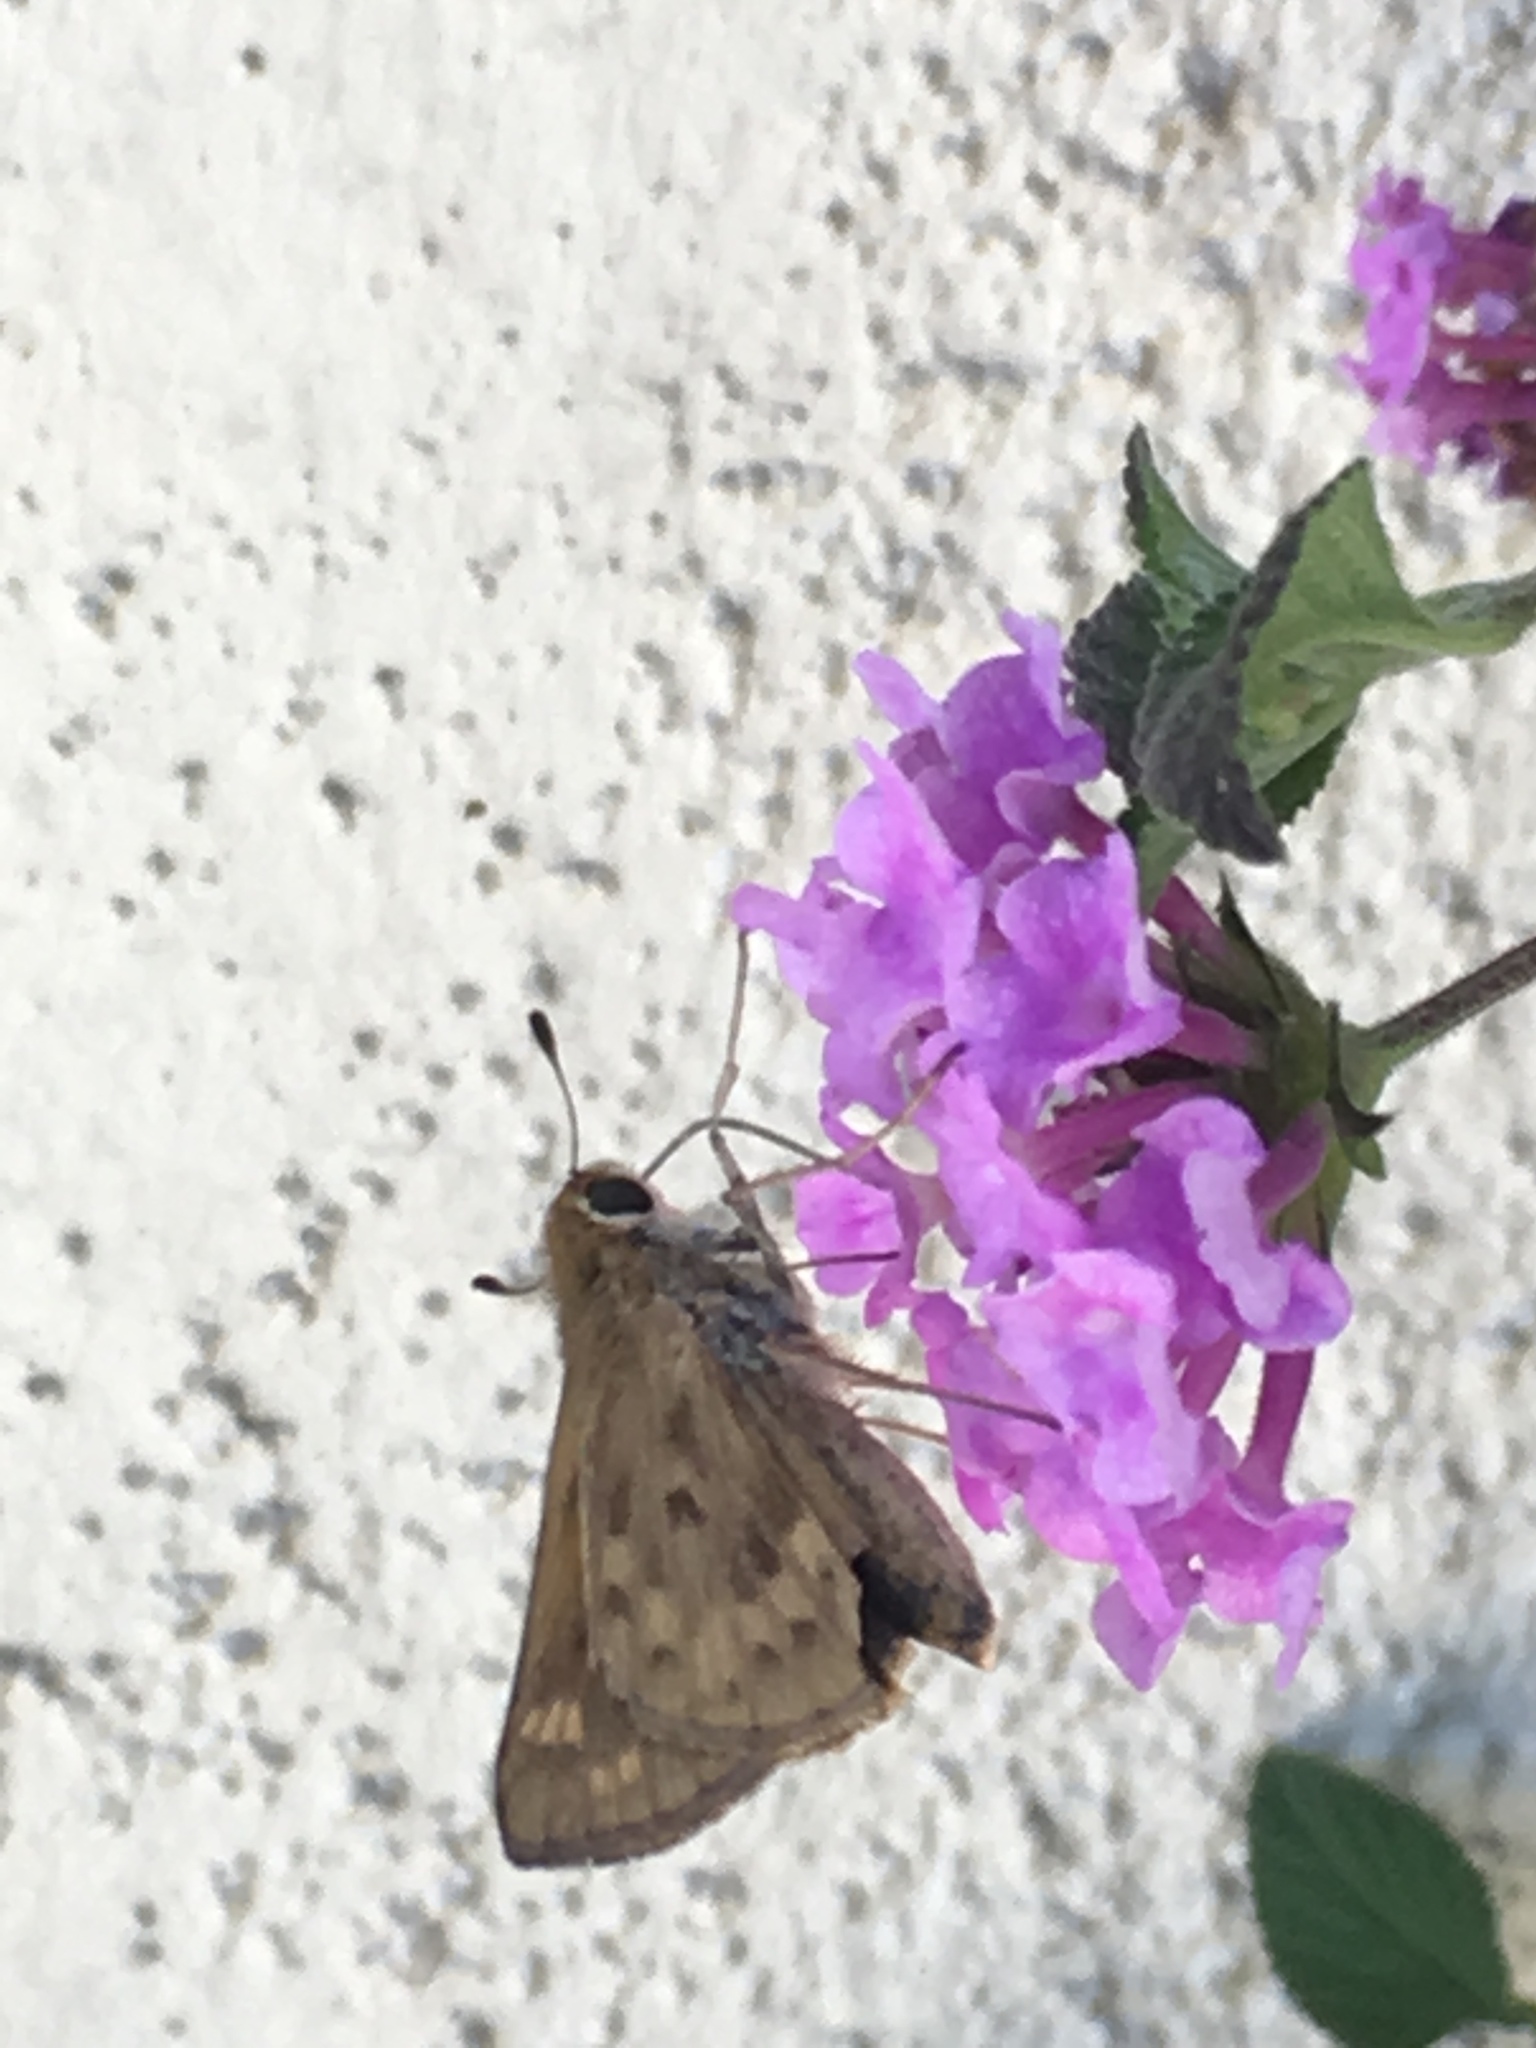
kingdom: Animalia
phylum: Arthropoda
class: Insecta
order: Lepidoptera
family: Hesperiidae
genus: Hylephila
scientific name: Hylephila phyleus
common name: Fiery skipper
